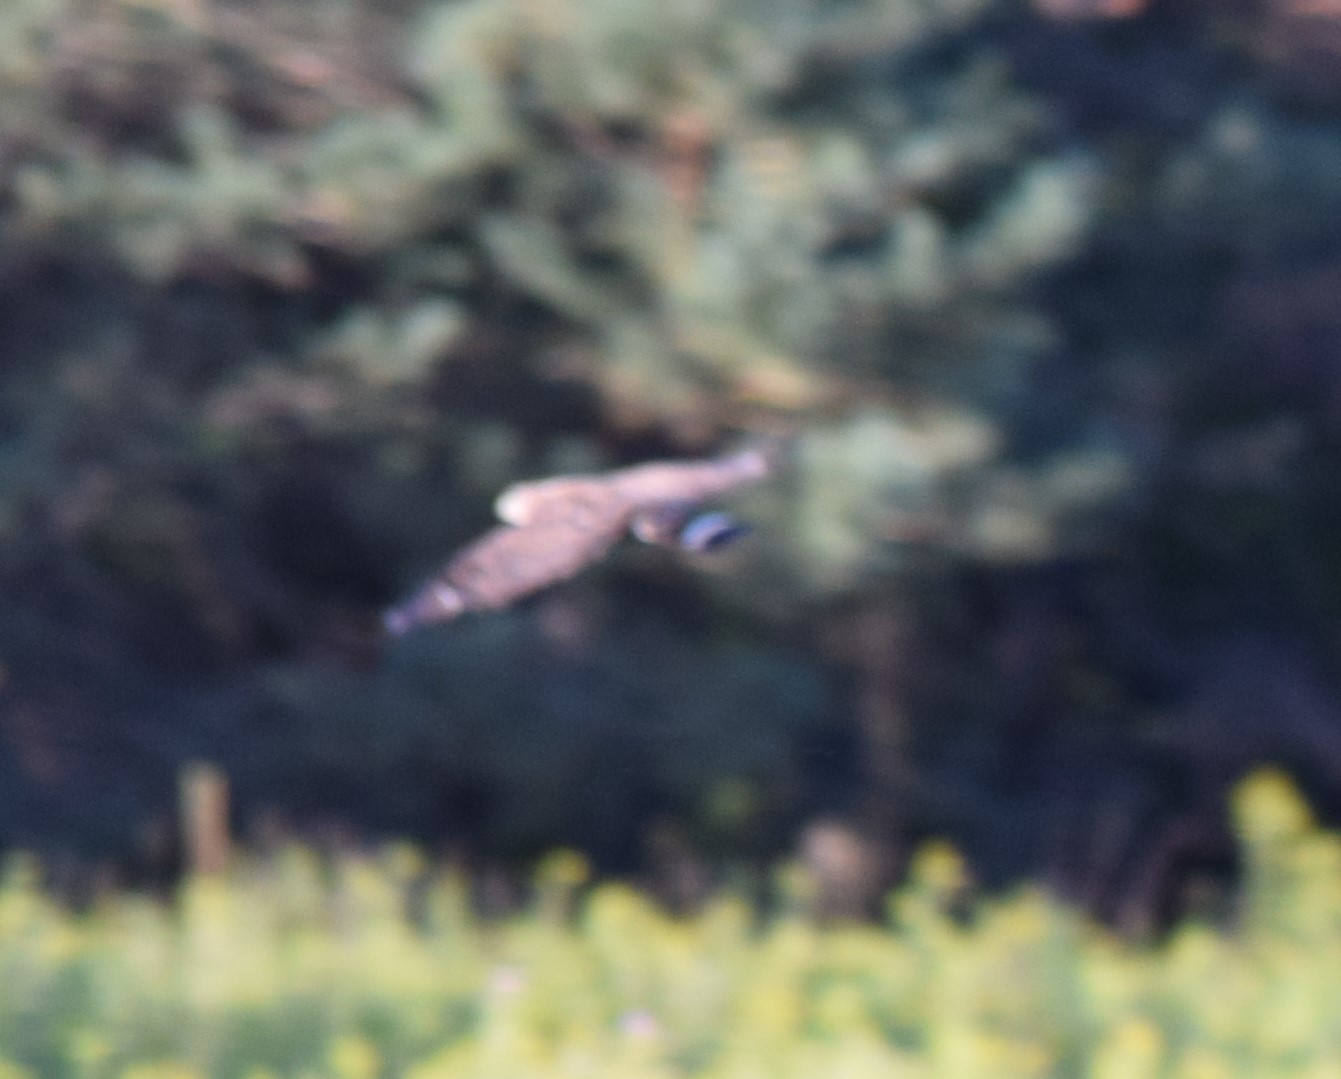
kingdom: Animalia
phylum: Chordata
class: Aves
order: Accipitriformes
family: Accipitridae
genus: Buteo
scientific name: Buteo platypterus
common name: Broad-winged hawk
